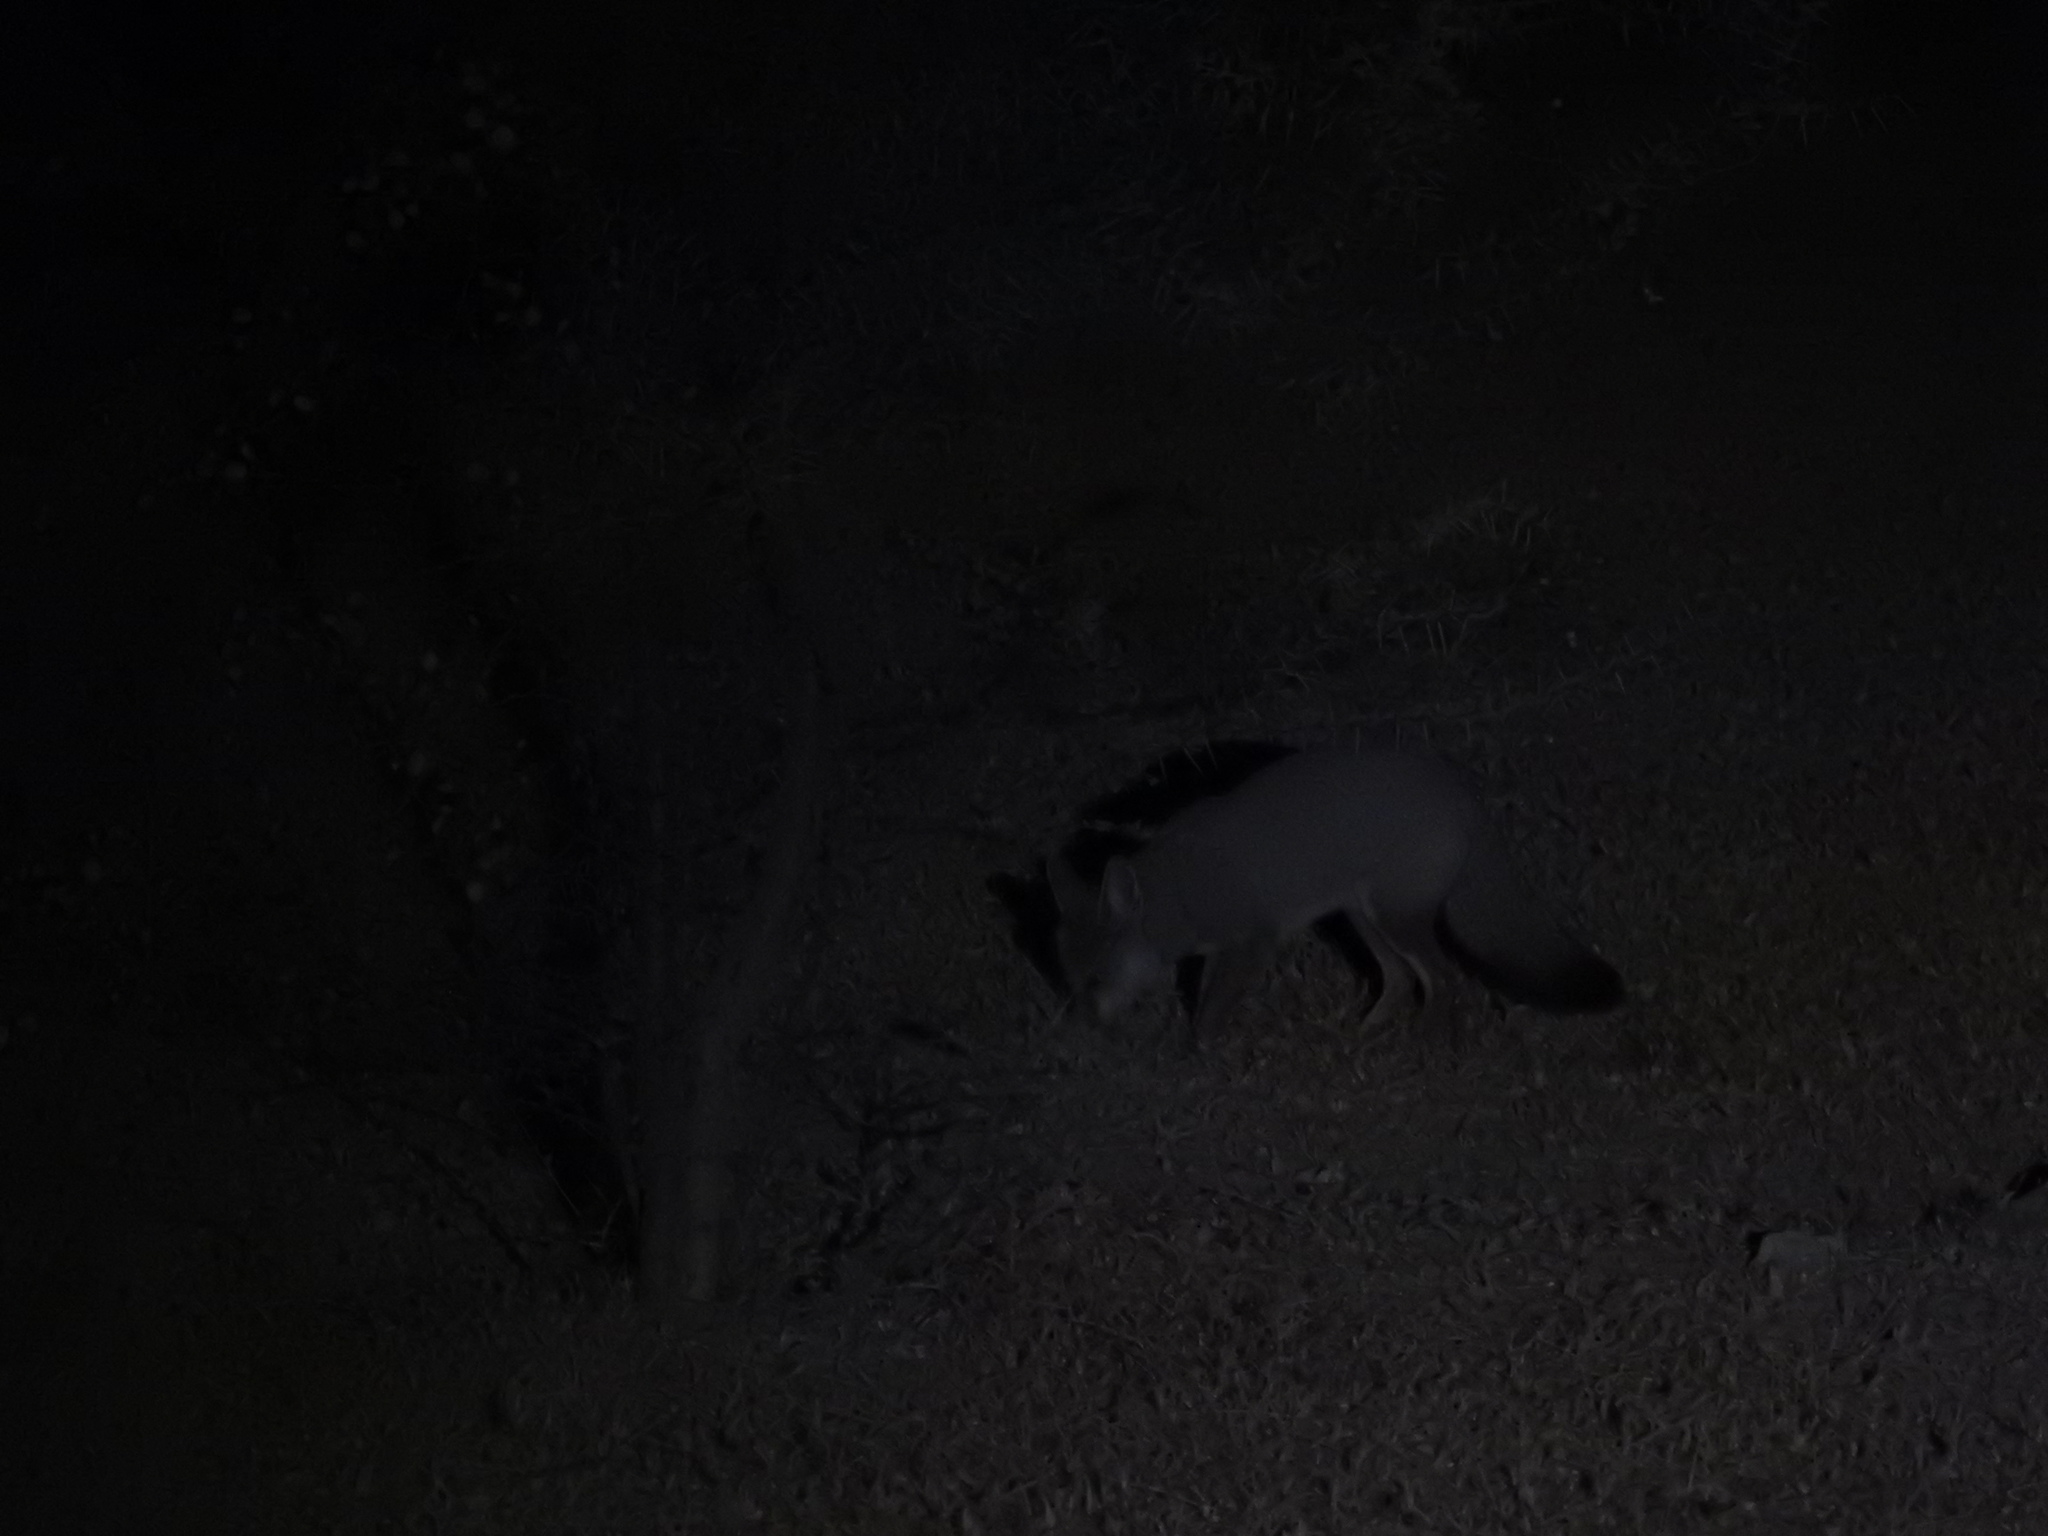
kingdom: Animalia
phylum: Chordata
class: Mammalia
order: Carnivora
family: Canidae
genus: Vulpes
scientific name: Vulpes bengalensis
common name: Bengal fox
